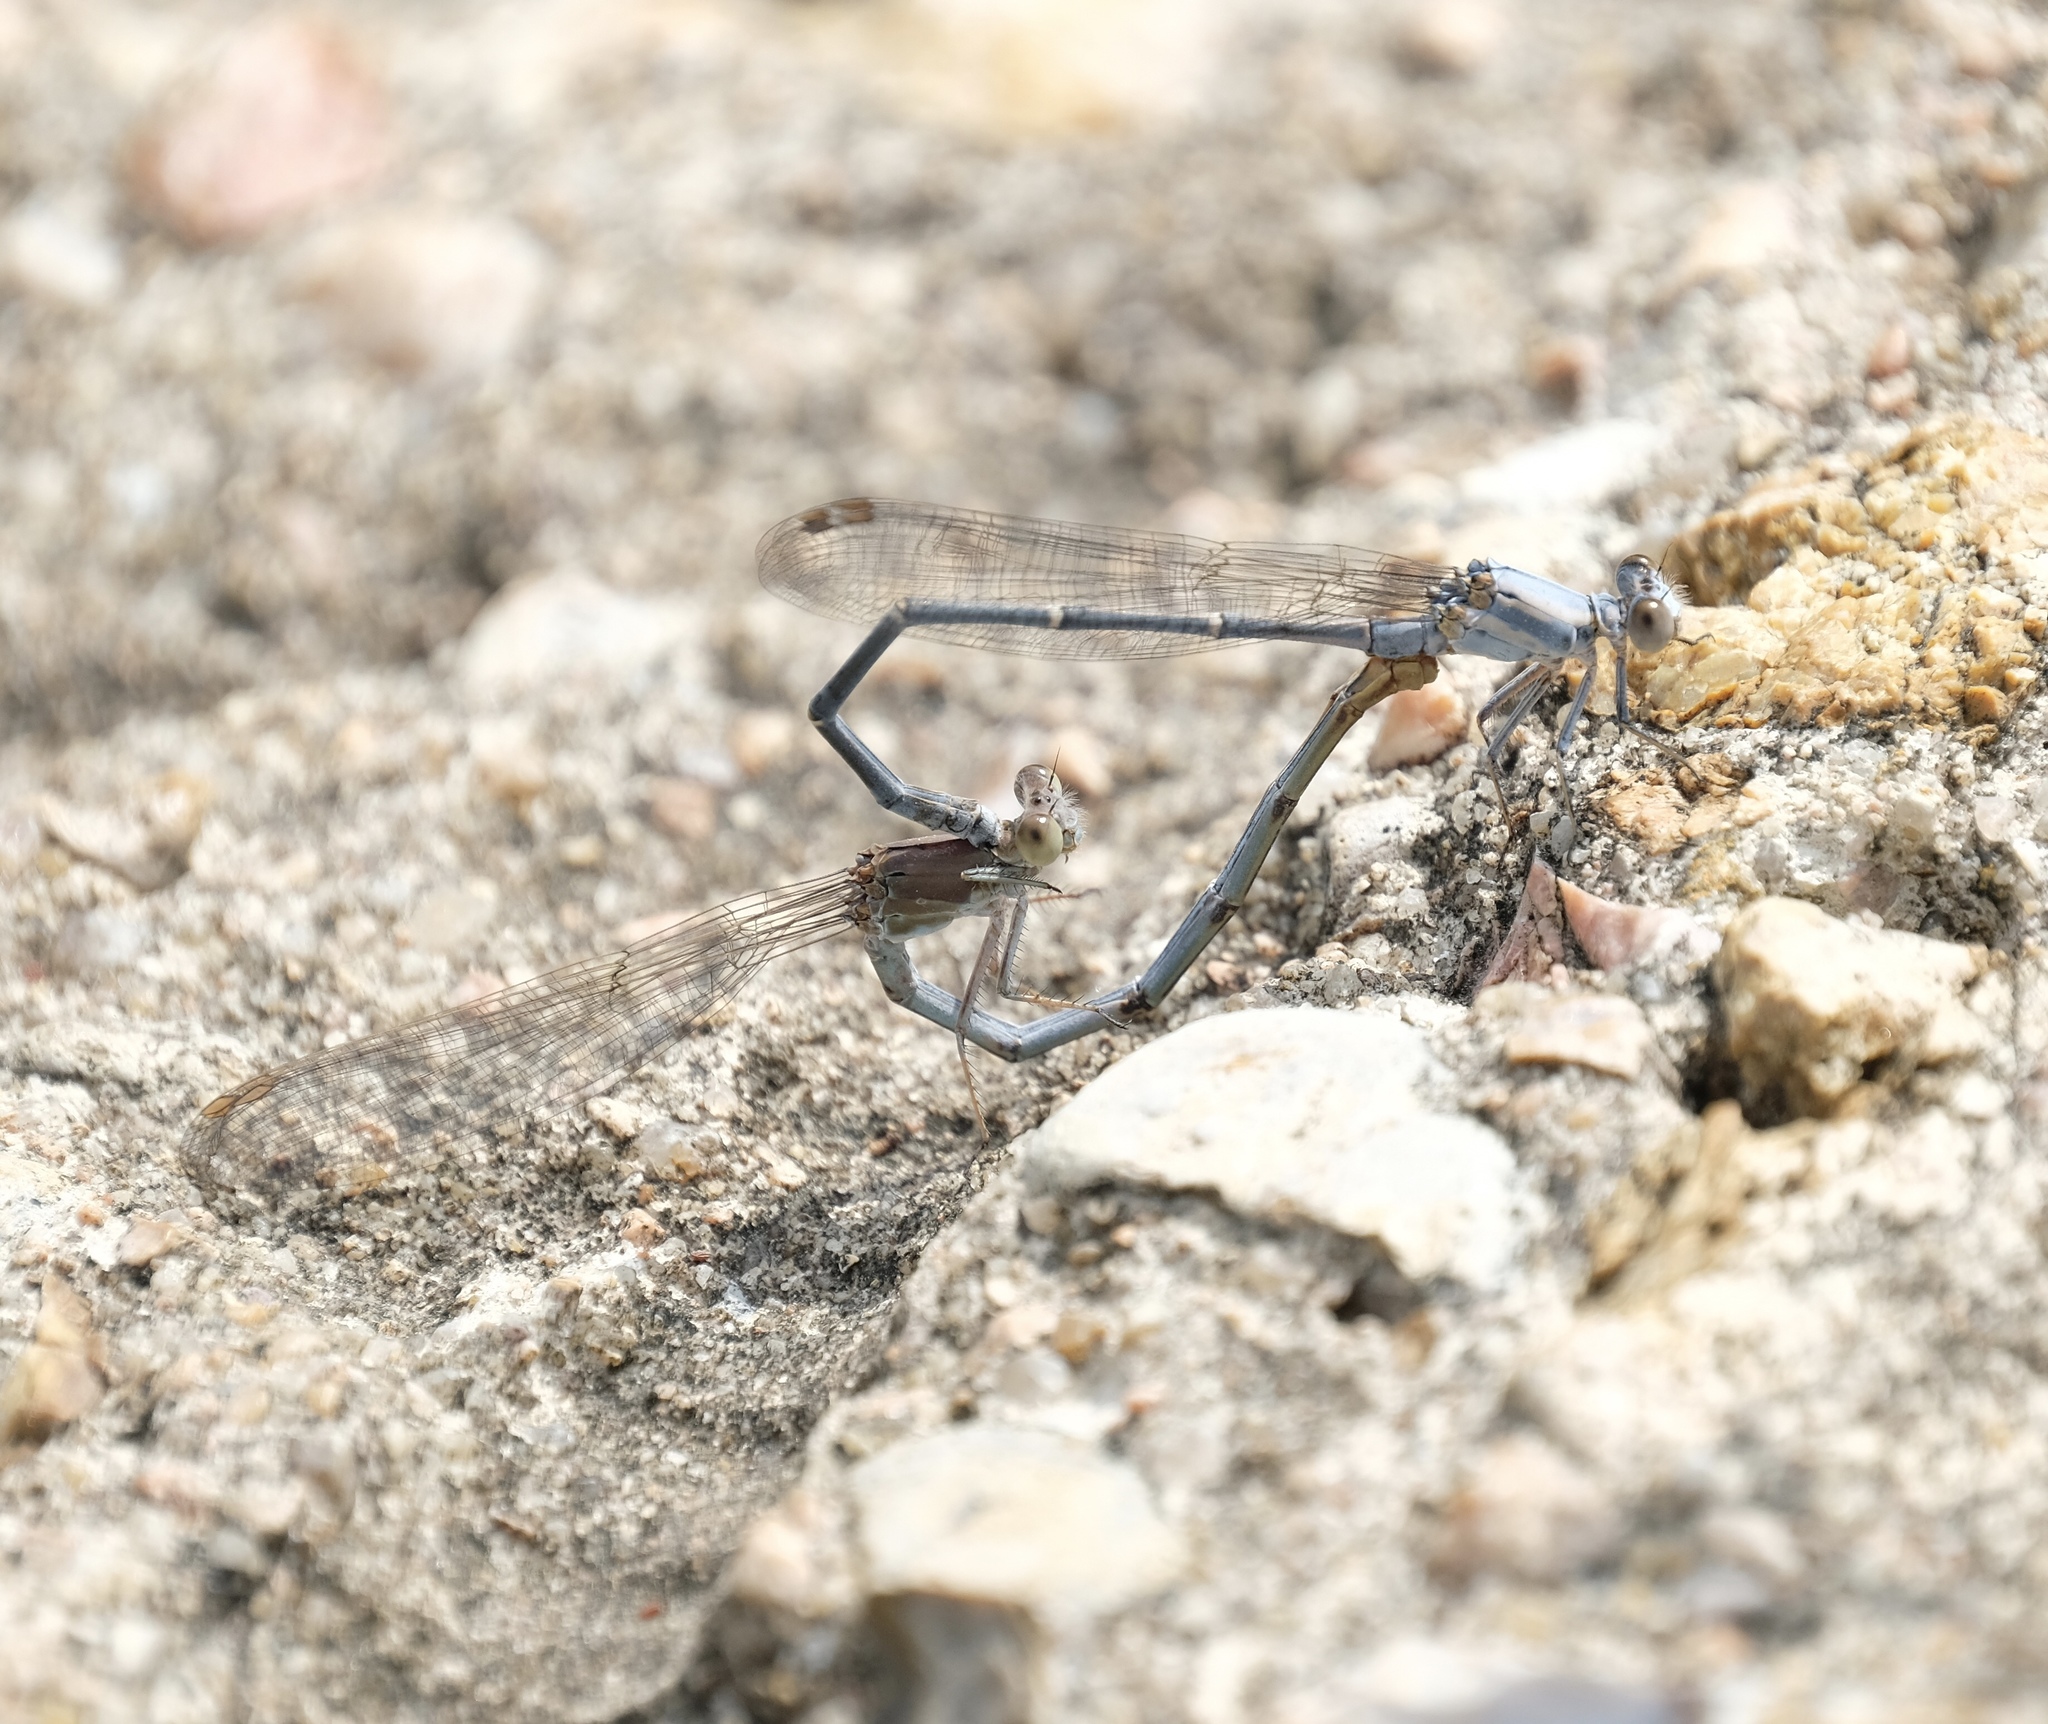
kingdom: Animalia
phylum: Arthropoda
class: Insecta
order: Odonata
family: Coenagrionidae
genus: Argia
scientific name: Argia moesta
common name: Powdered dancer
